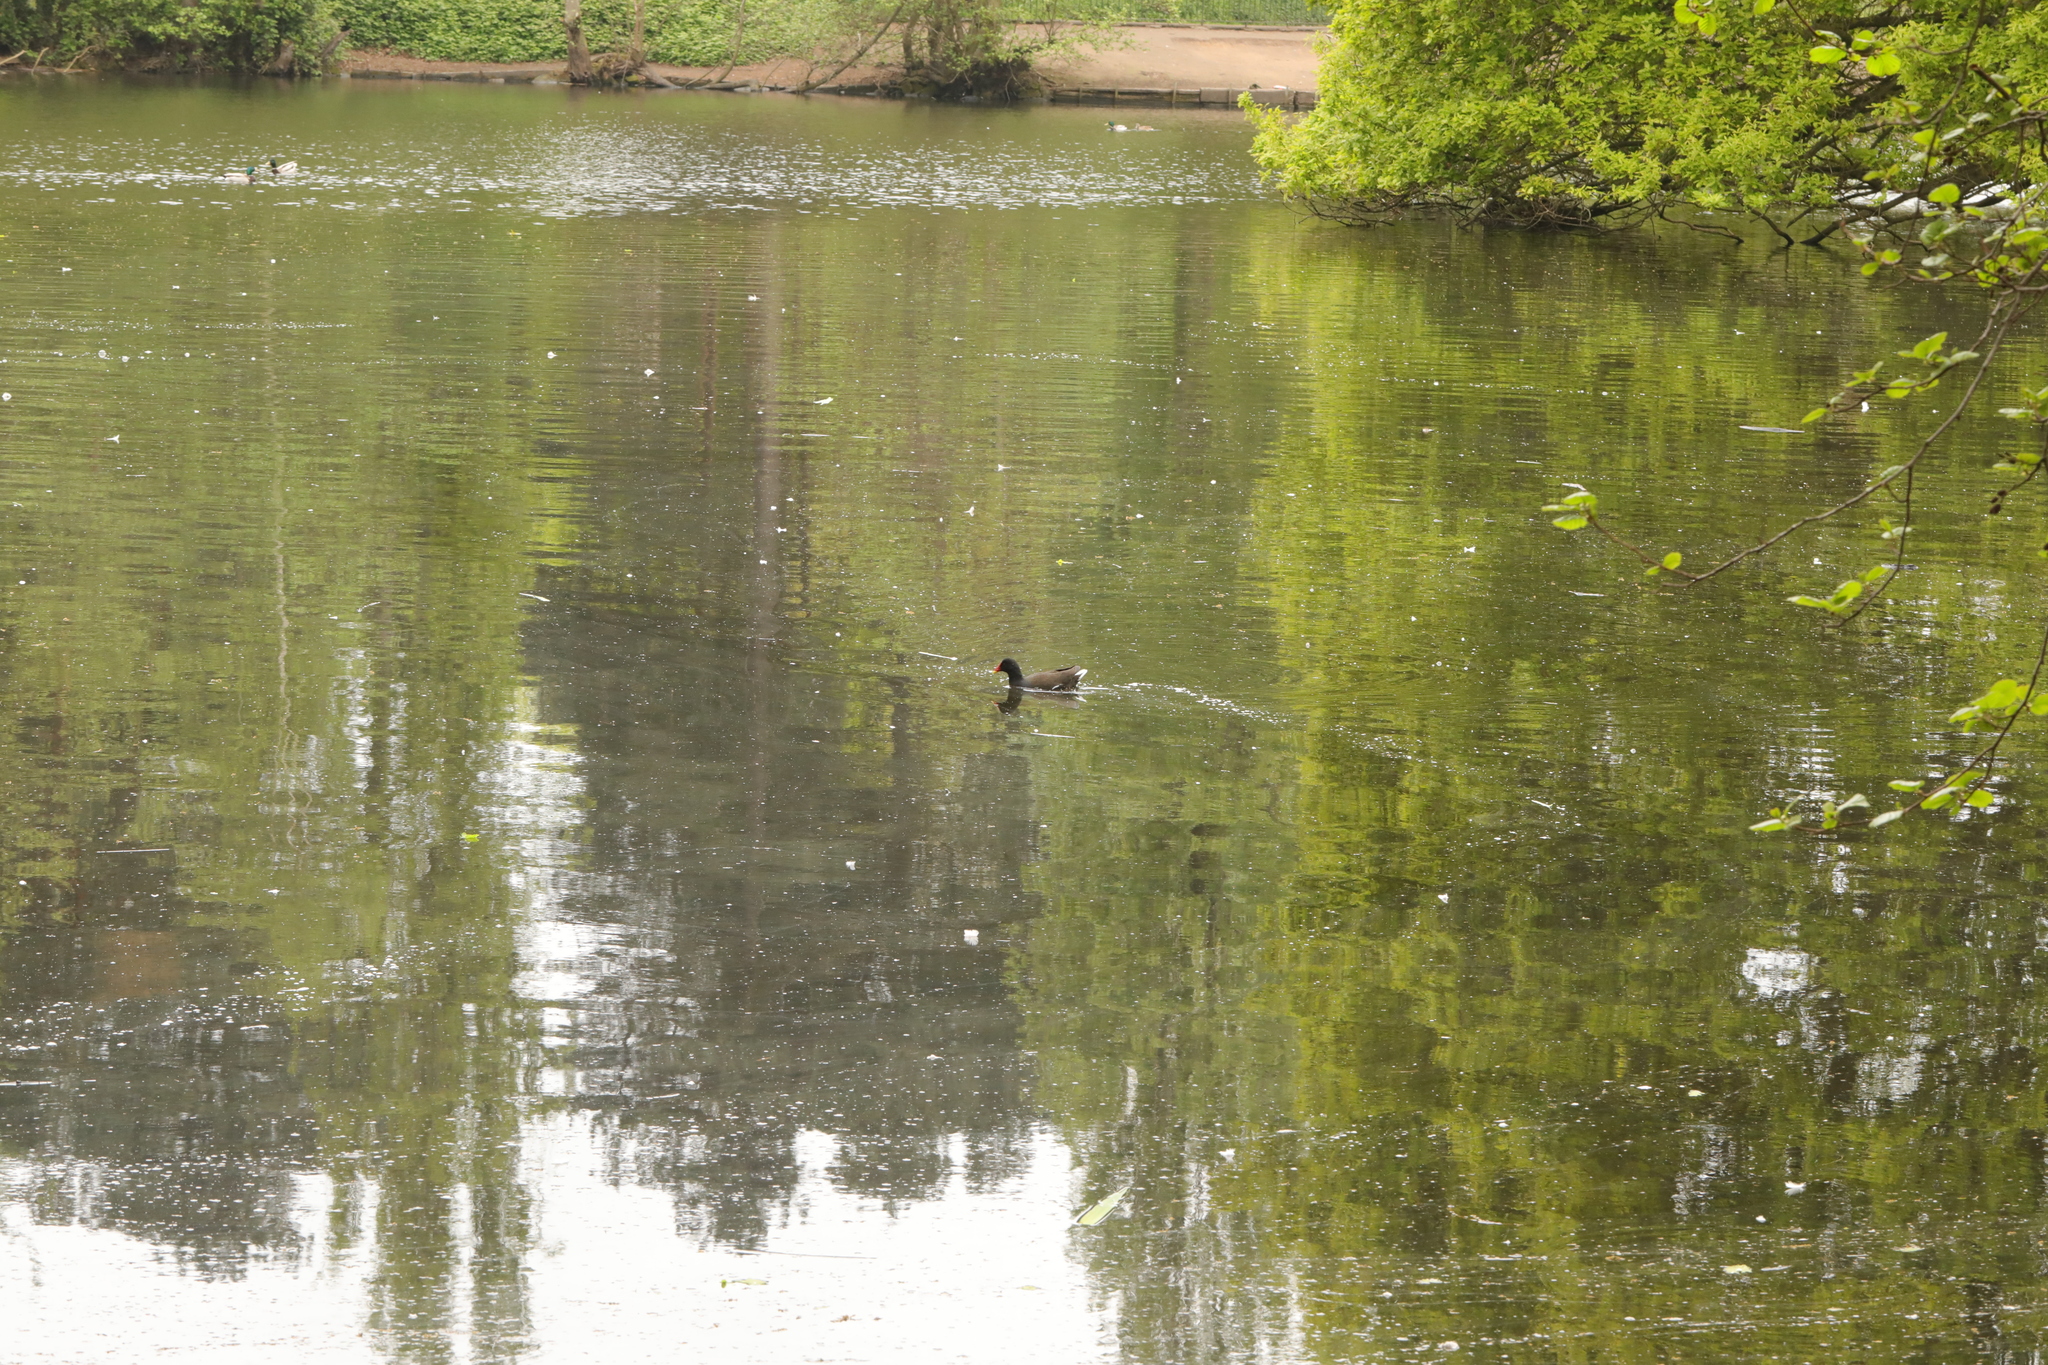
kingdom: Animalia
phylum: Chordata
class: Aves
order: Gruiformes
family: Rallidae
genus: Gallinula
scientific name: Gallinula chloropus
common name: Common moorhen
